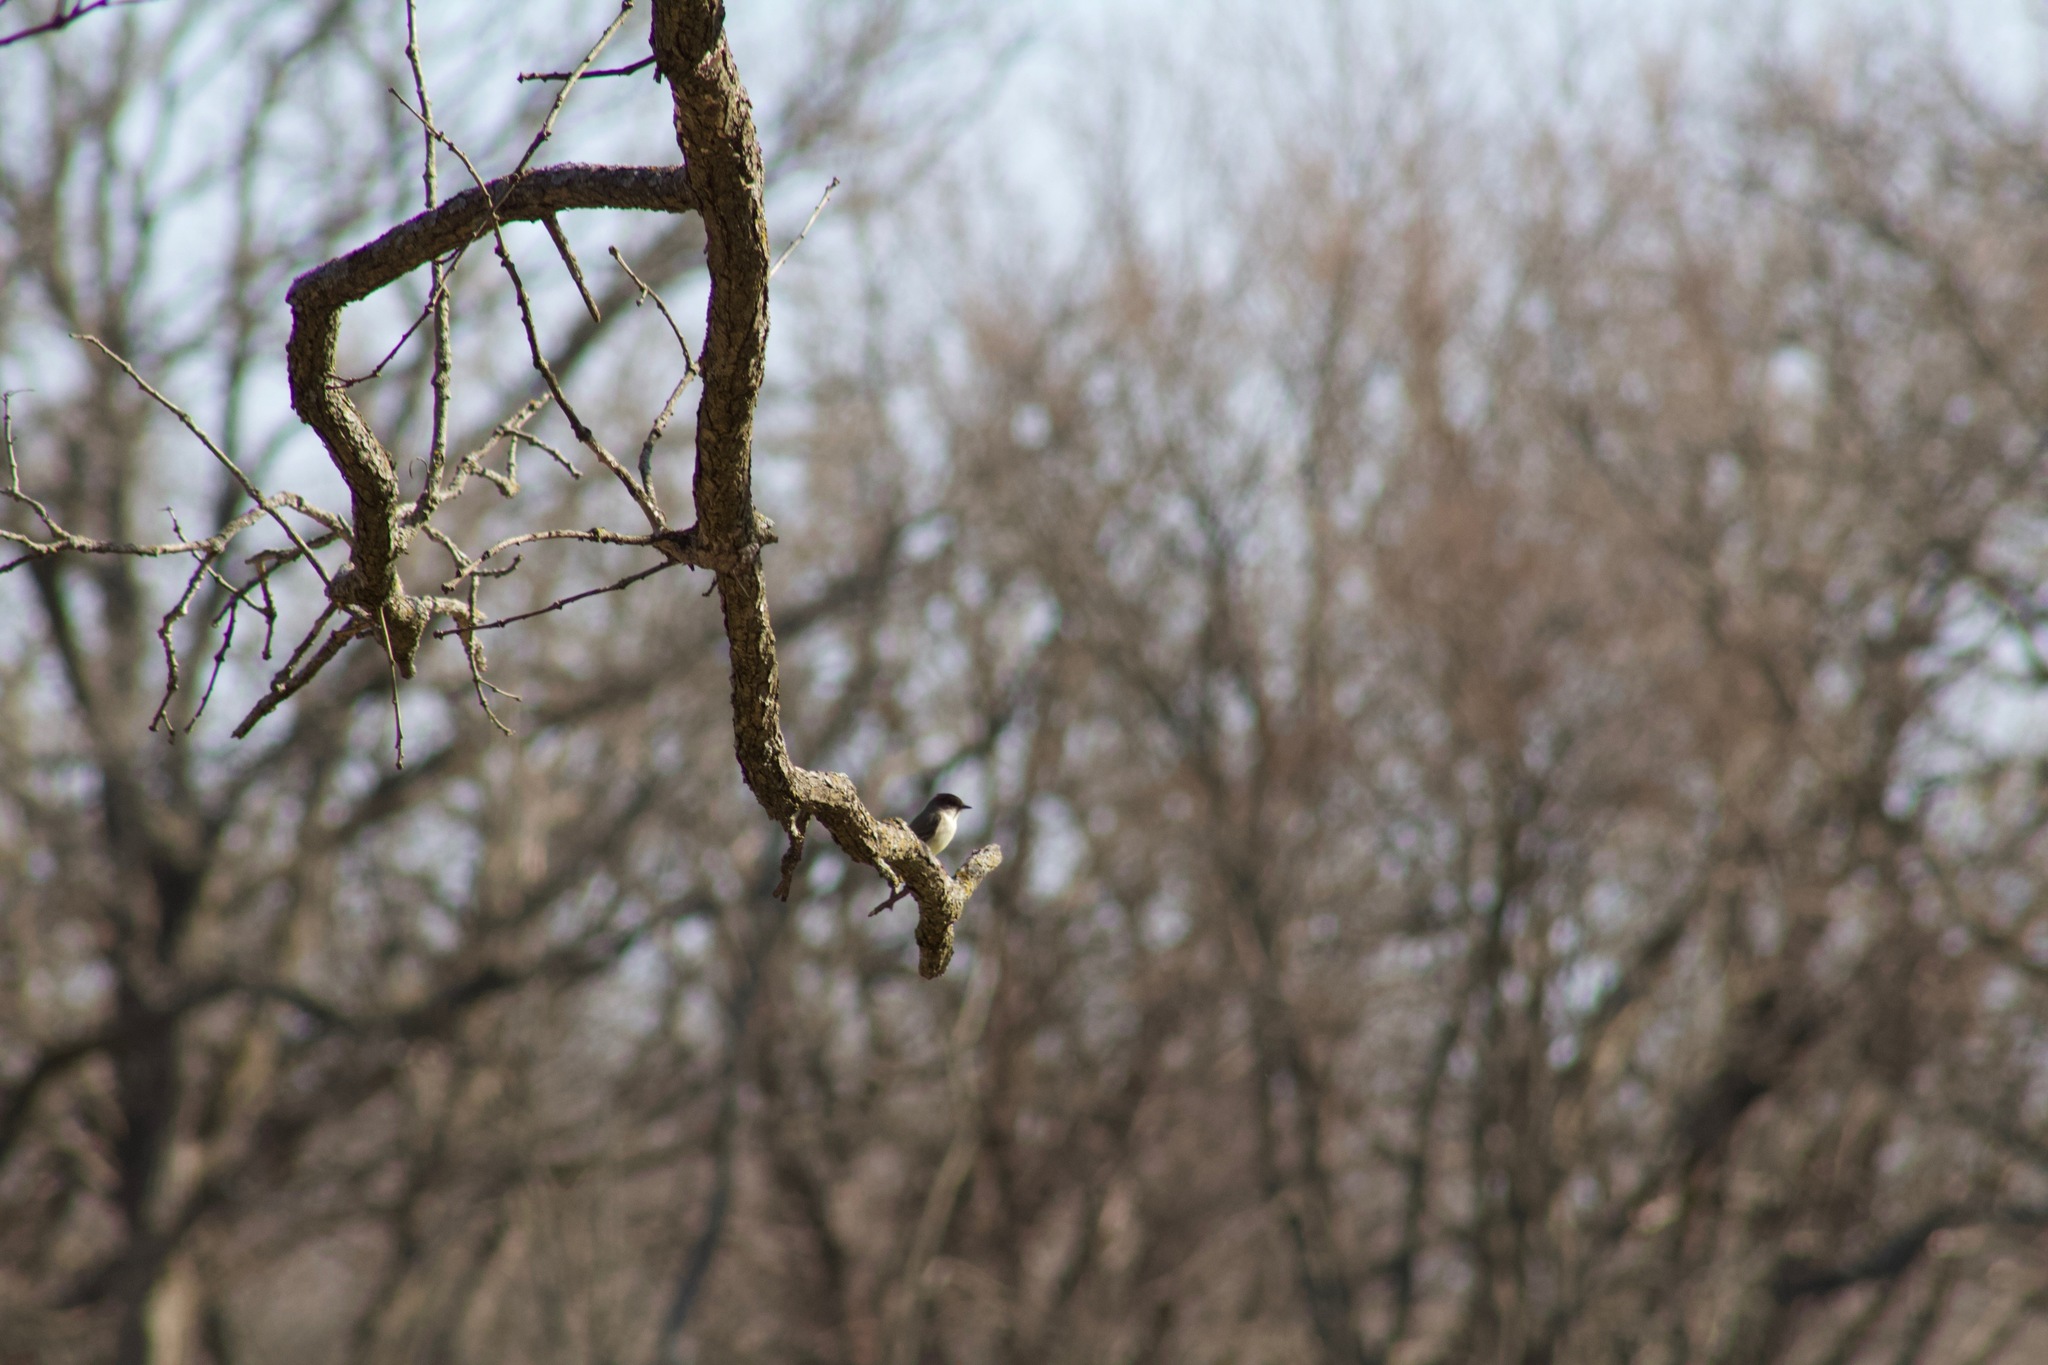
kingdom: Animalia
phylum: Chordata
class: Aves
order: Passeriformes
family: Tyrannidae
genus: Sayornis
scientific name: Sayornis phoebe
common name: Eastern phoebe
